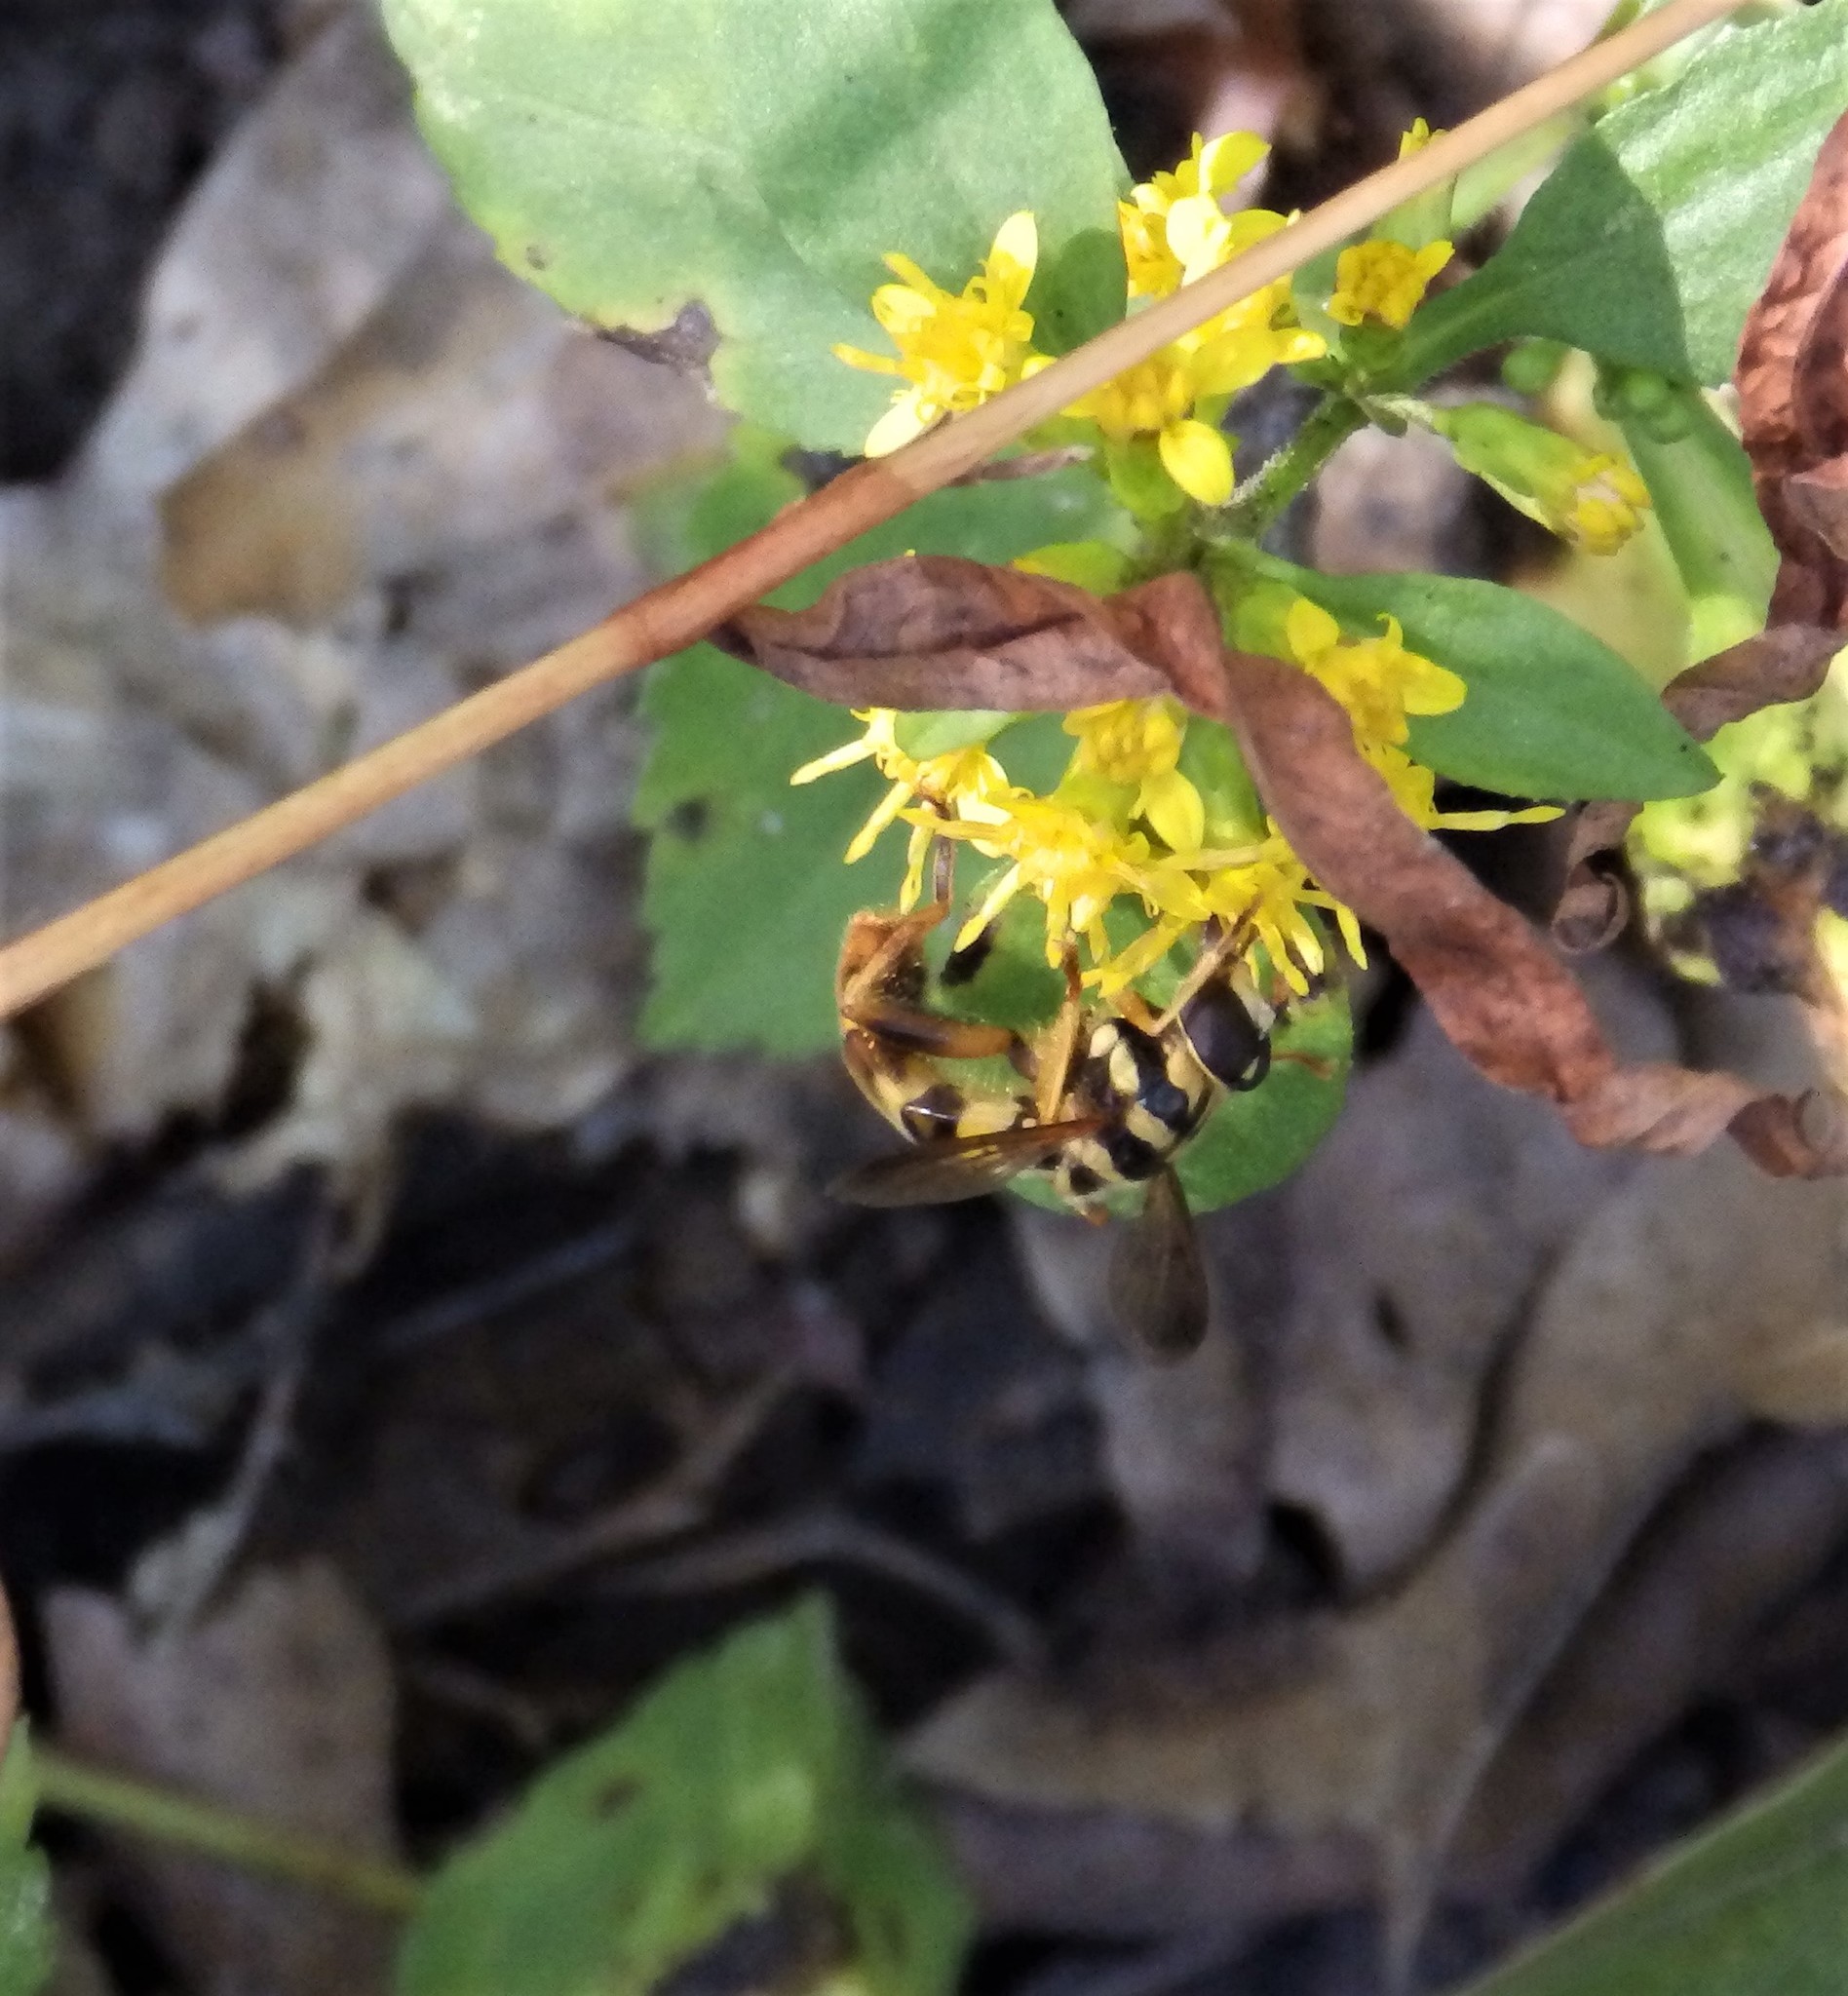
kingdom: Animalia
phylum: Arthropoda
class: Insecta
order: Diptera
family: Syrphidae
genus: Milesia
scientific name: Milesia virginiensis
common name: Virginia giant
